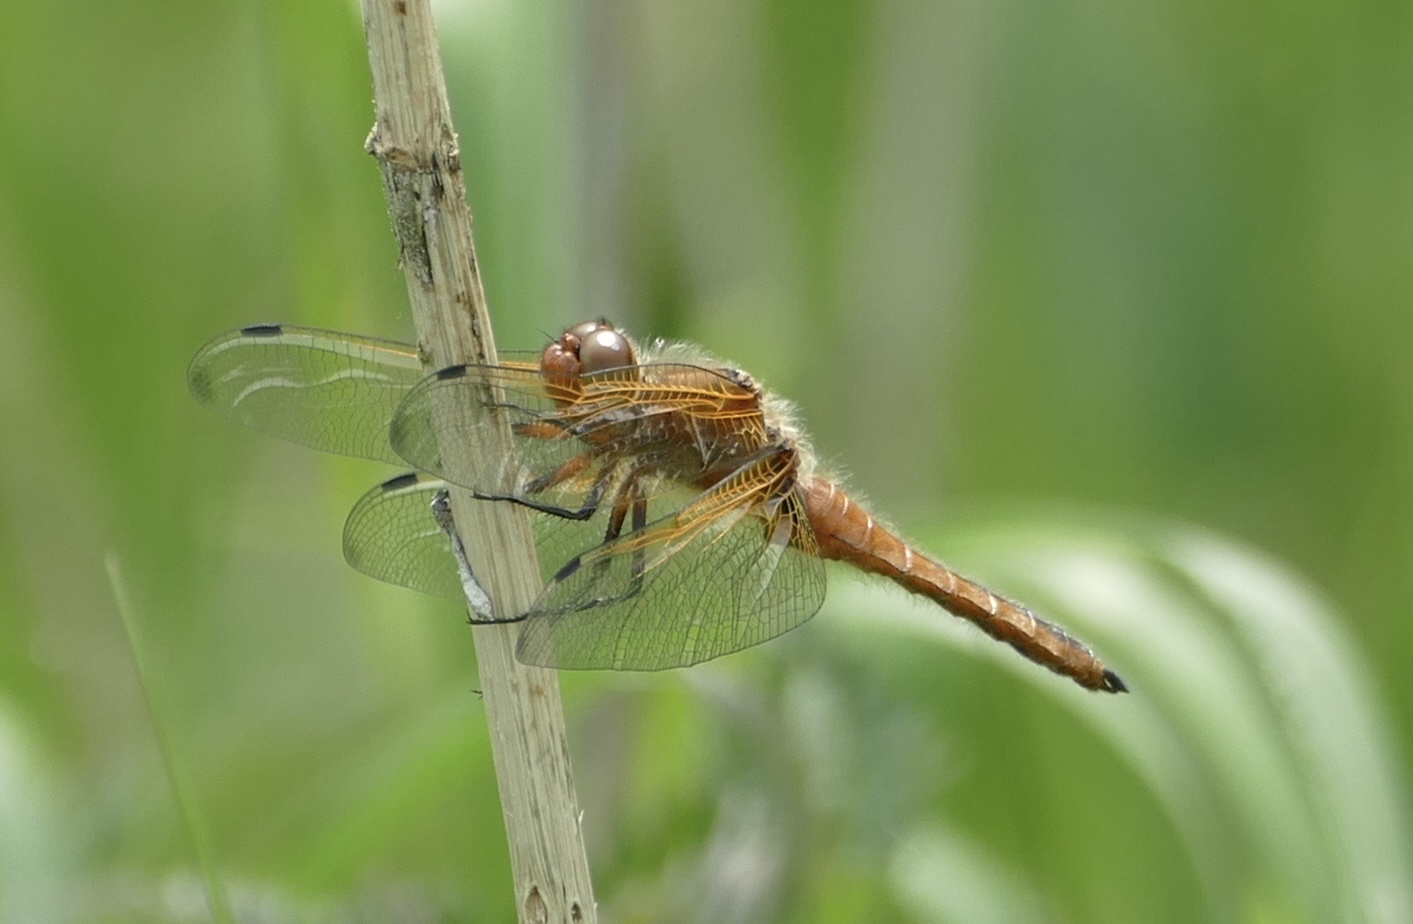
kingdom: Animalia
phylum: Arthropoda
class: Insecta
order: Odonata
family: Libellulidae
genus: Libellula
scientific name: Libellula fulva
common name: Blue chaser
